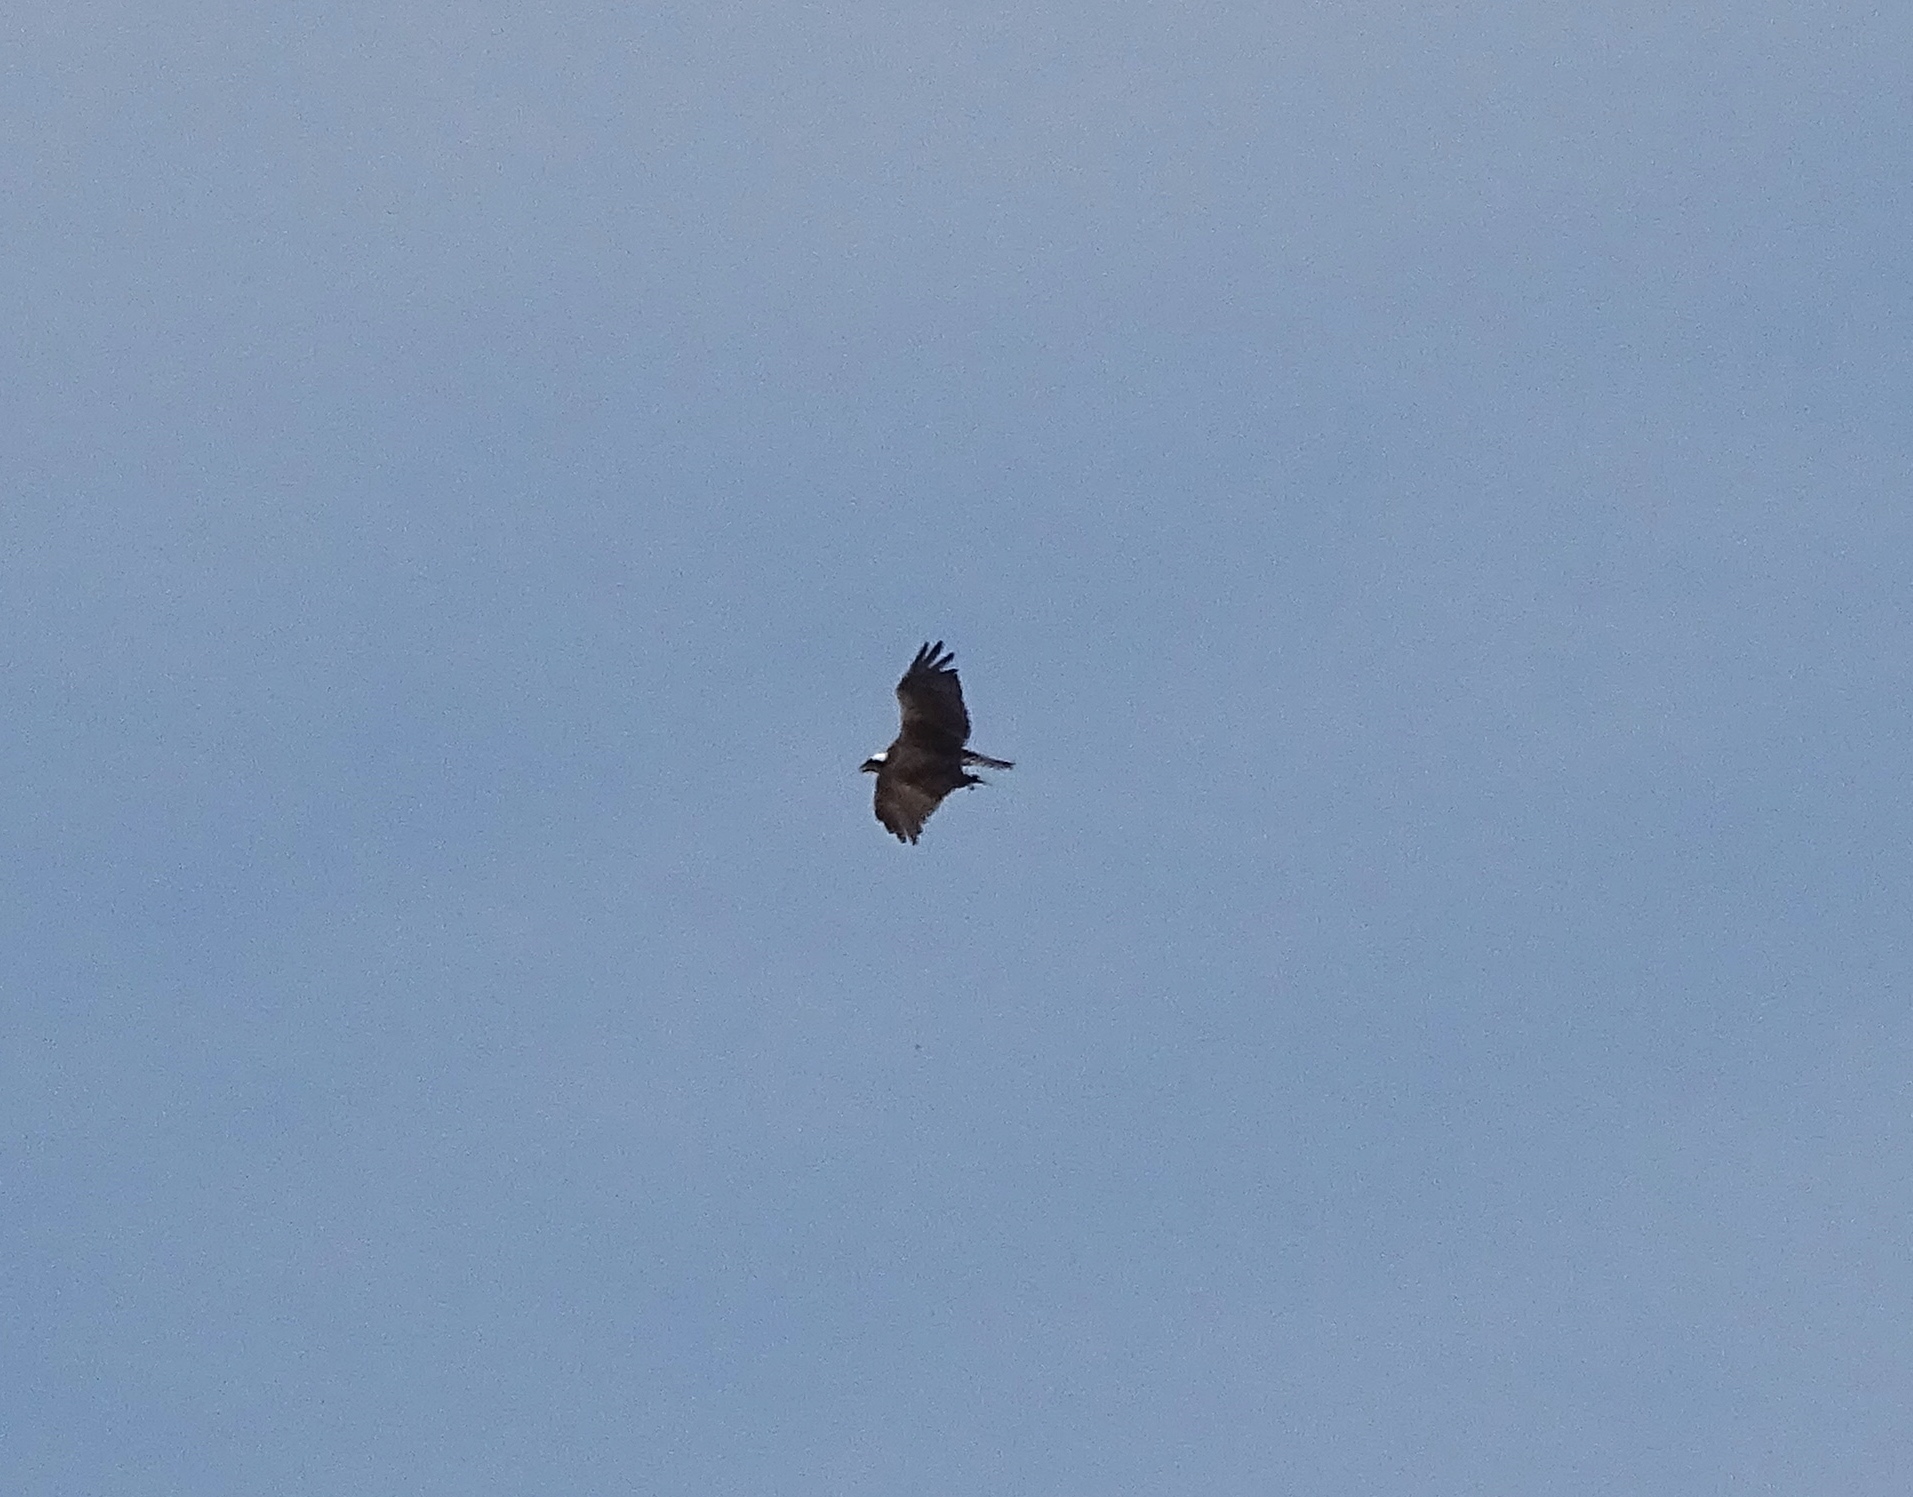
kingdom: Animalia
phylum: Chordata
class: Aves
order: Accipitriformes
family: Pandionidae
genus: Pandion
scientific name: Pandion haliaetus
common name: Osprey
